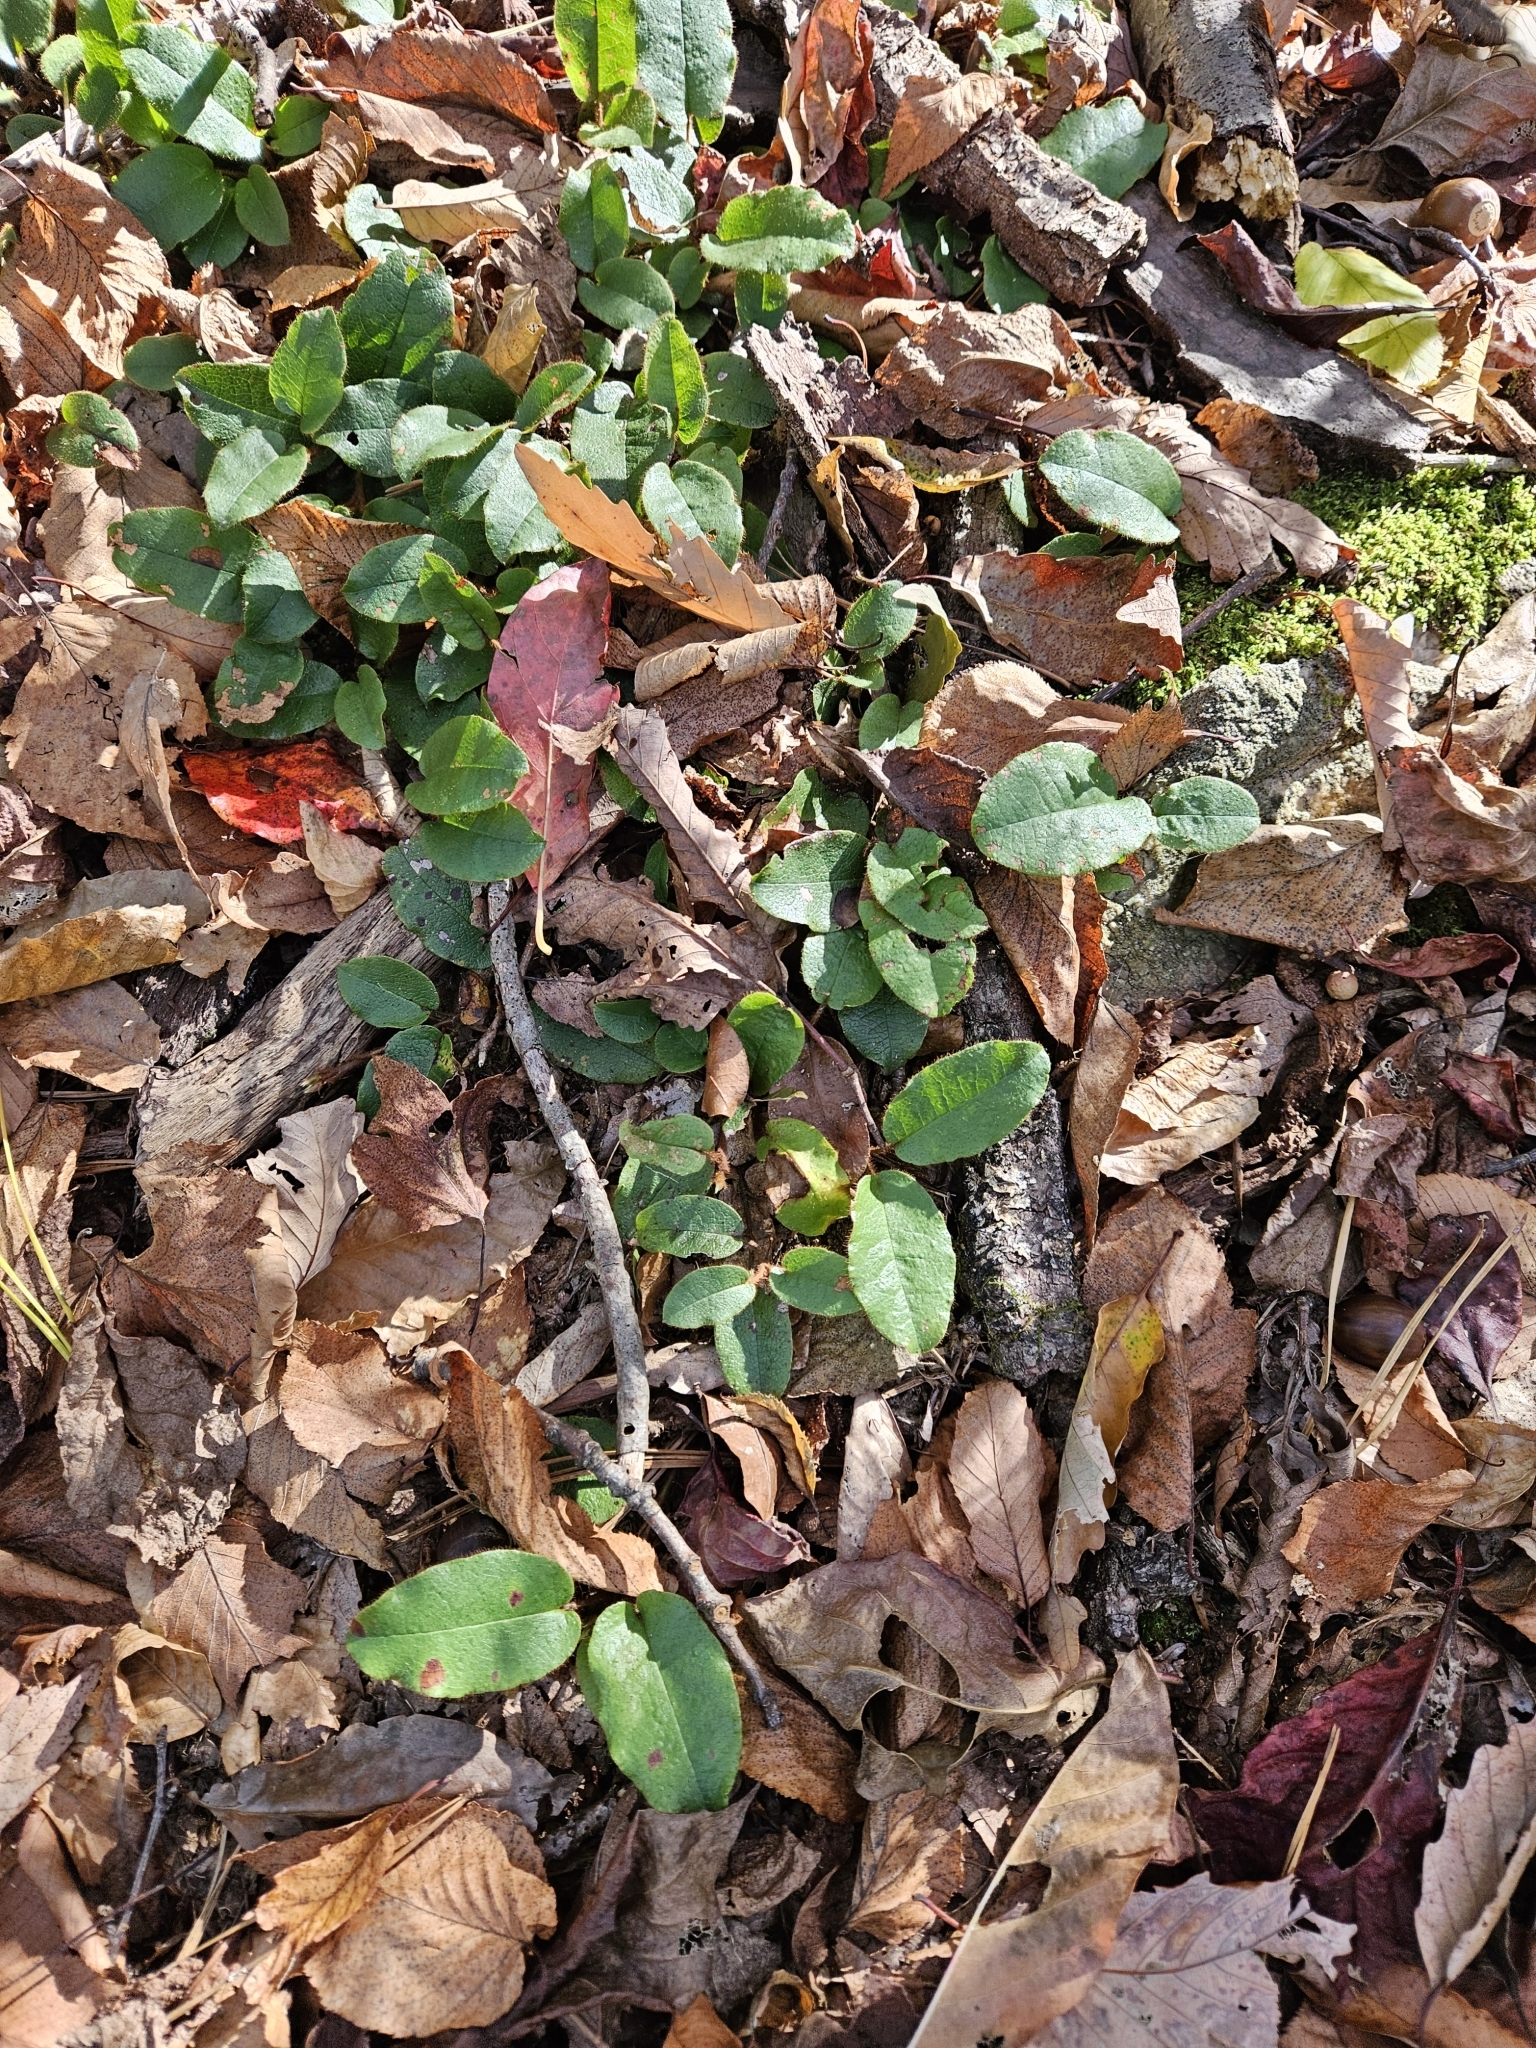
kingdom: Plantae
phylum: Tracheophyta
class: Magnoliopsida
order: Ericales
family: Ericaceae
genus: Epigaea
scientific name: Epigaea repens
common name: Gravelroot
